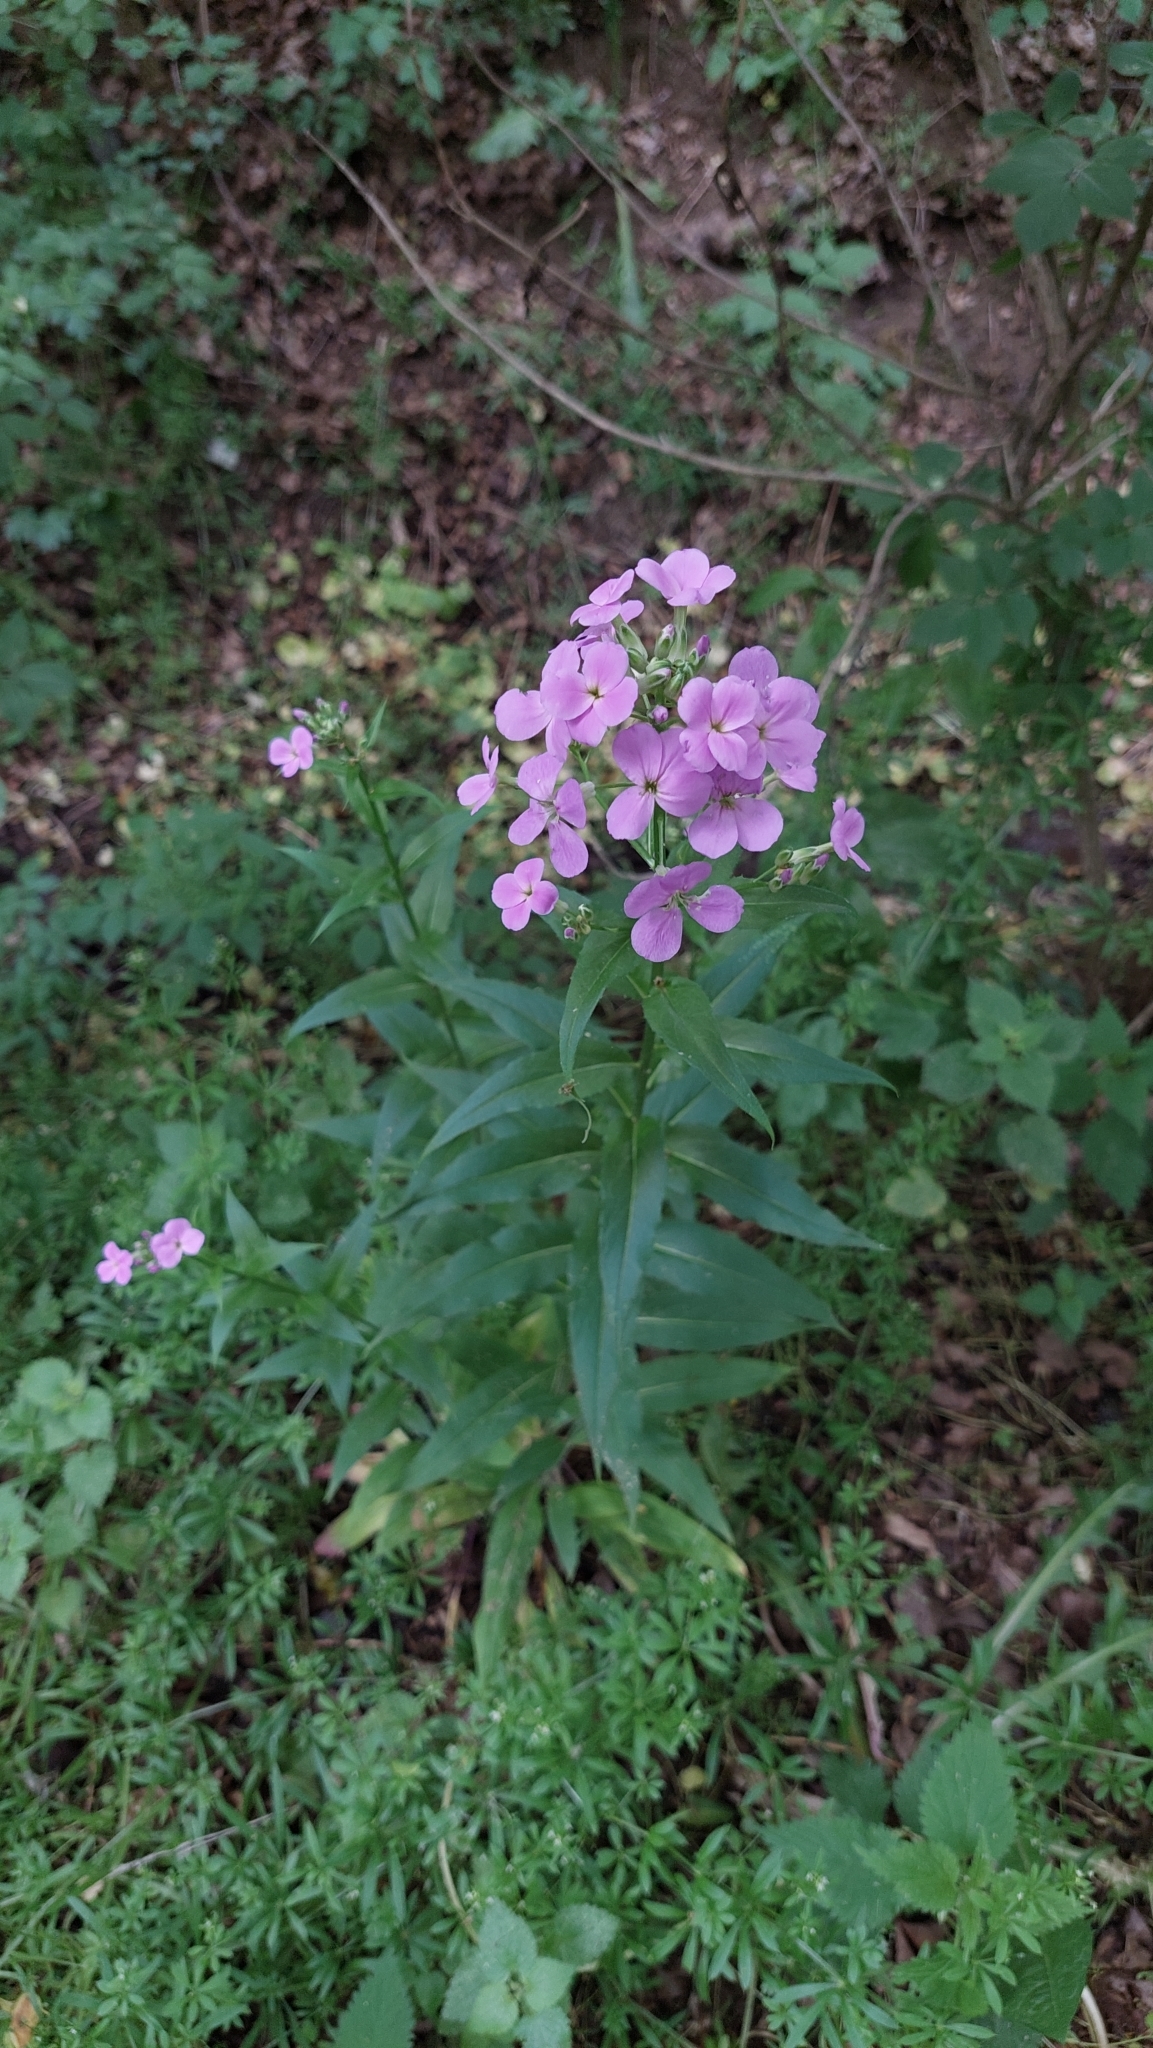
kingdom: Plantae
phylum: Tracheophyta
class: Magnoliopsida
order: Brassicales
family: Brassicaceae
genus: Hesperis
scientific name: Hesperis matronalis
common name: Dame's-violet
